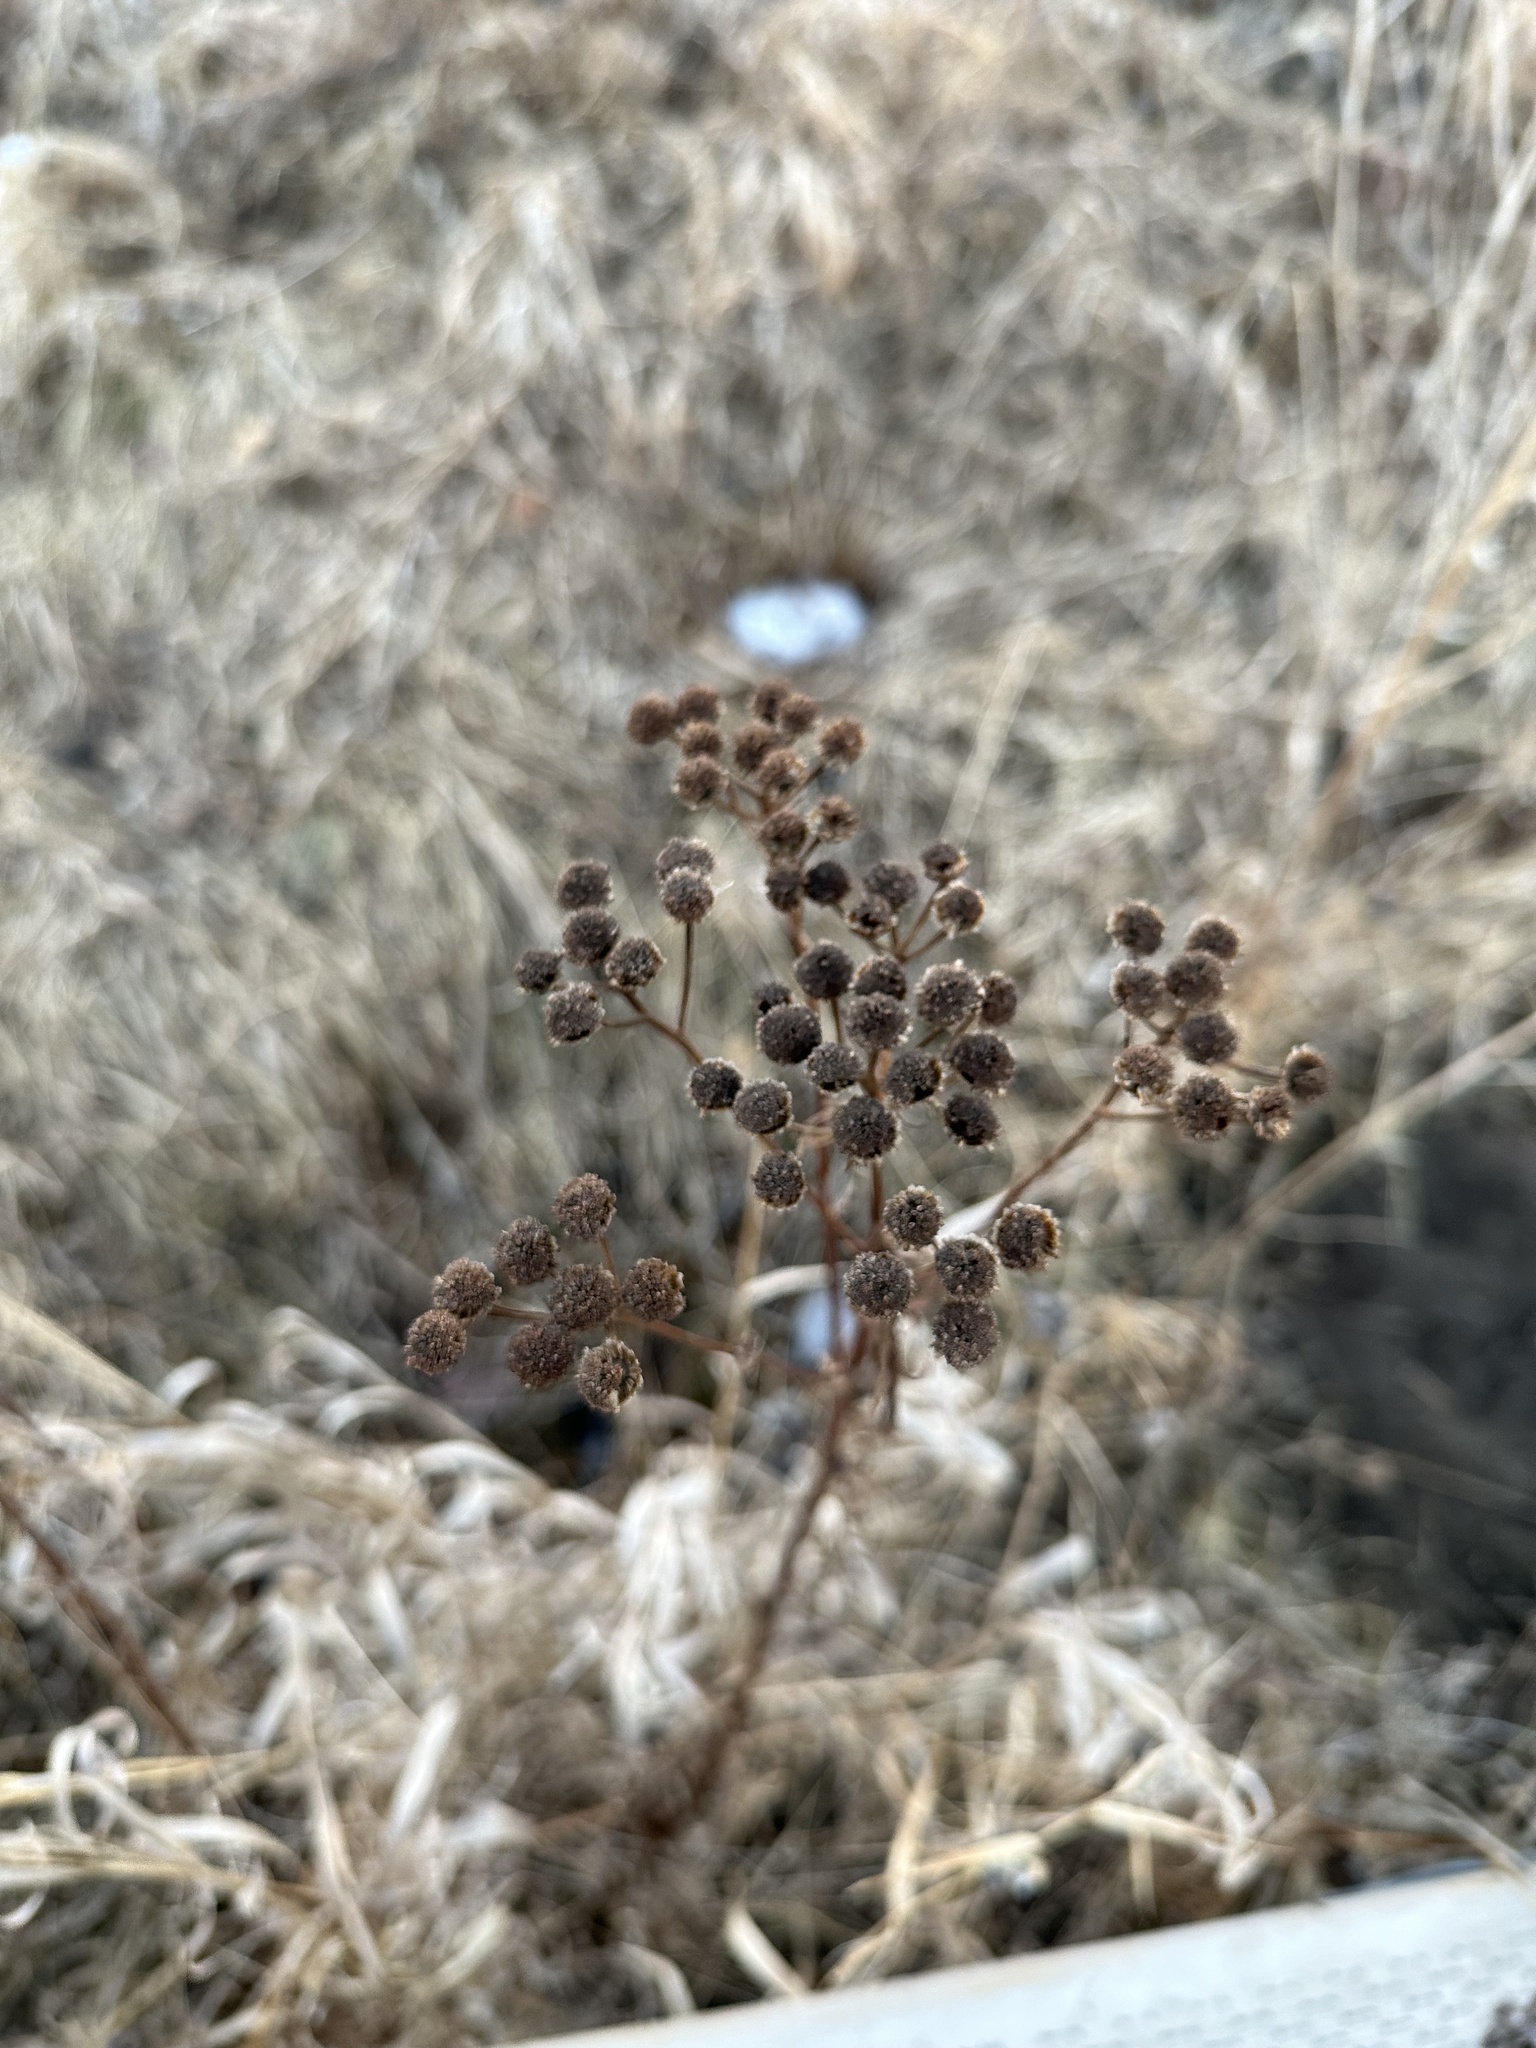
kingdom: Plantae
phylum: Tracheophyta
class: Magnoliopsida
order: Asterales
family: Asteraceae
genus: Tanacetum
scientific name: Tanacetum vulgare
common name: Common tansy
